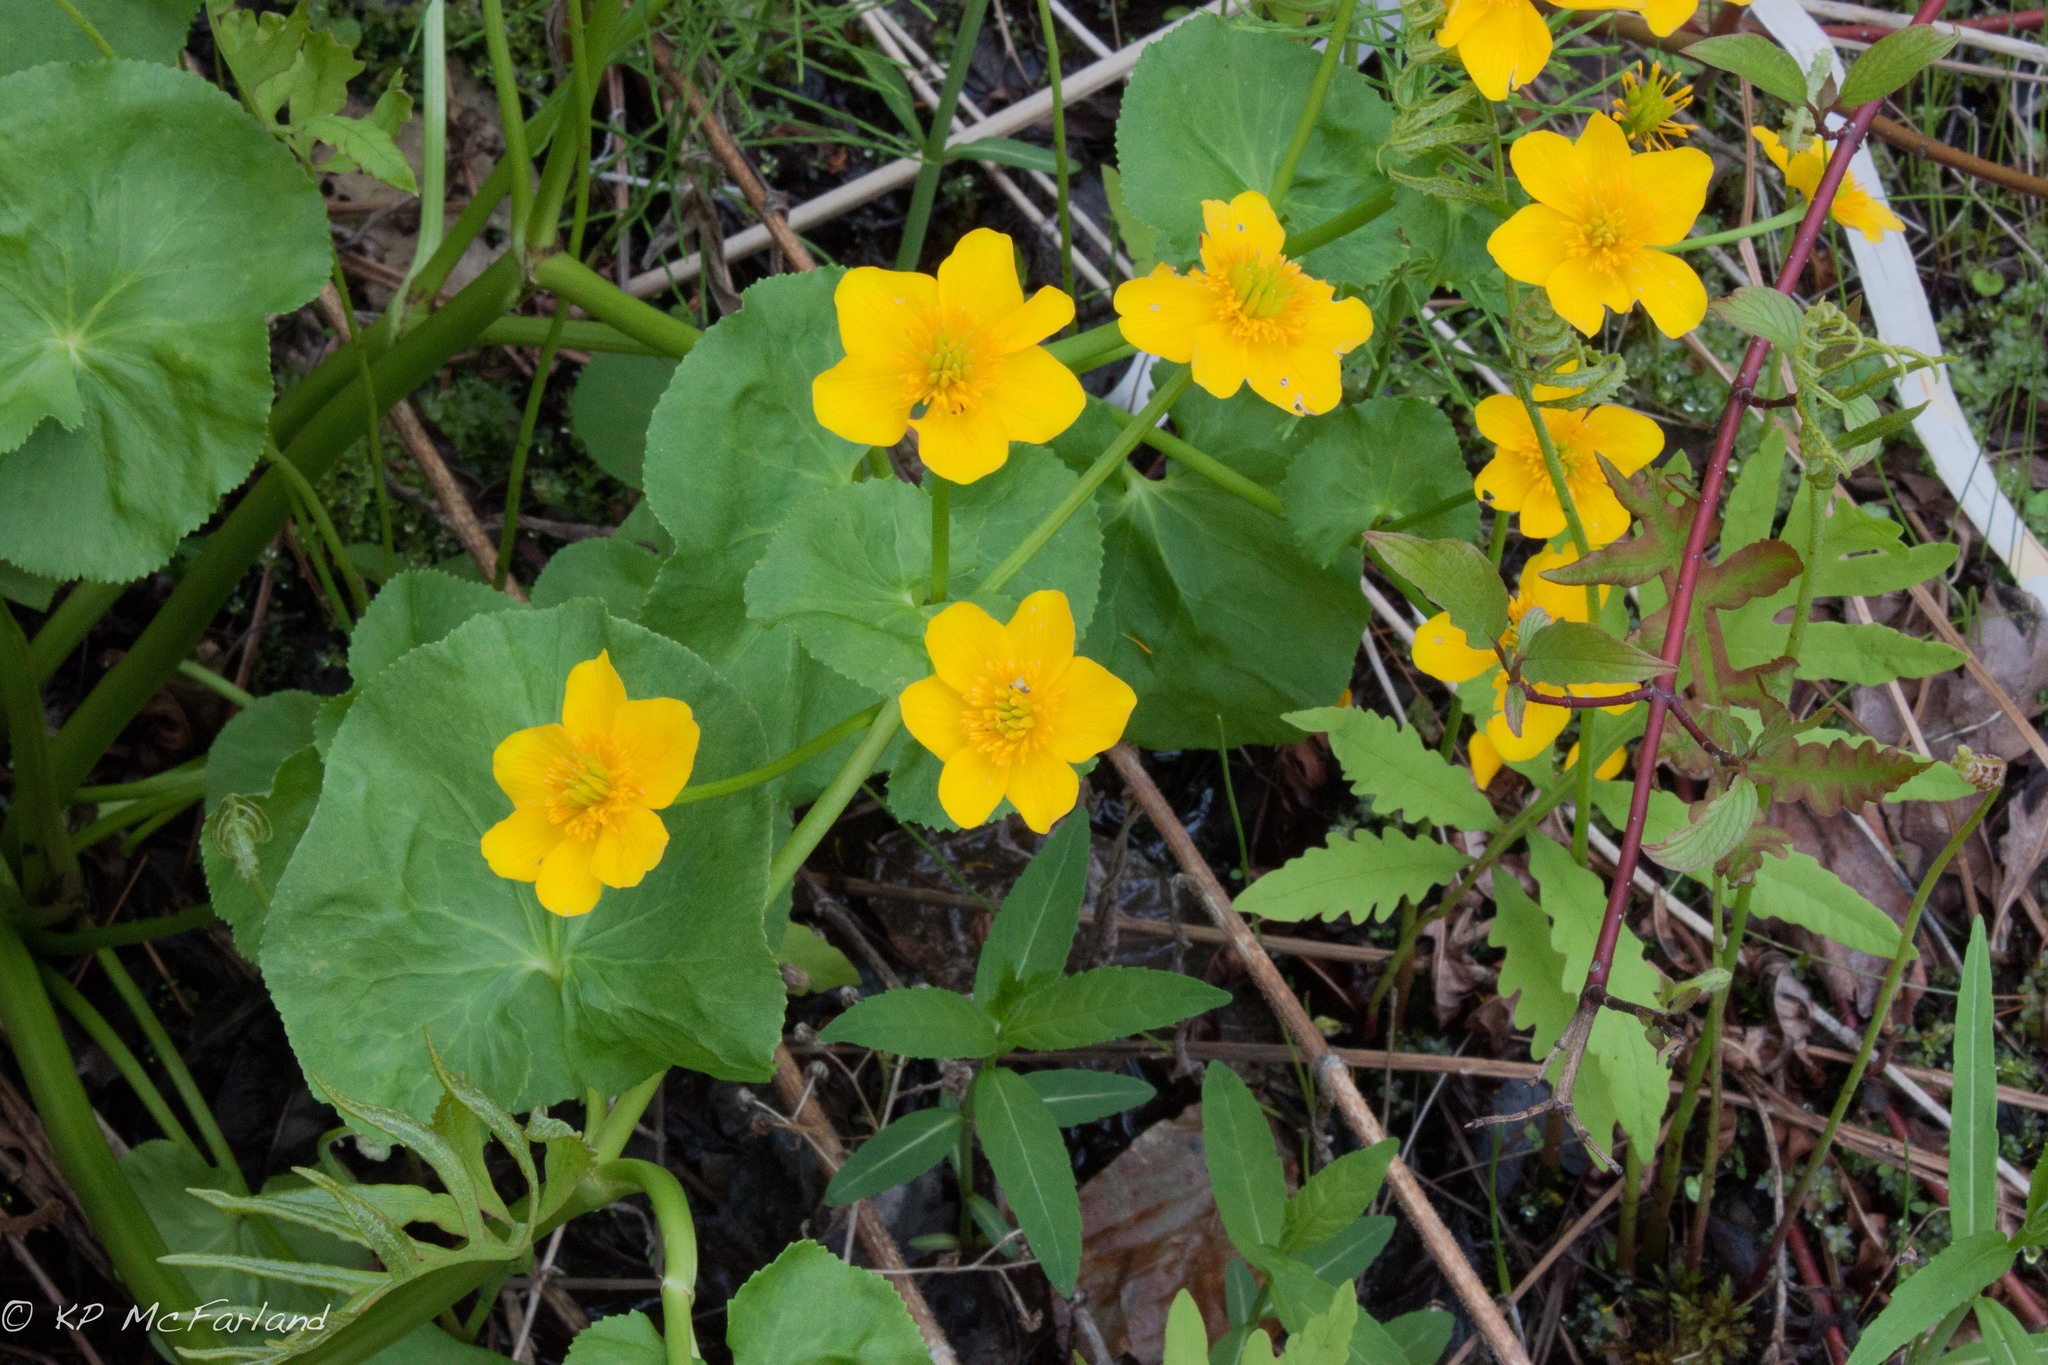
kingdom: Plantae
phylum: Tracheophyta
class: Magnoliopsida
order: Ranunculales
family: Ranunculaceae
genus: Caltha
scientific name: Caltha palustris
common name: Marsh marigold
